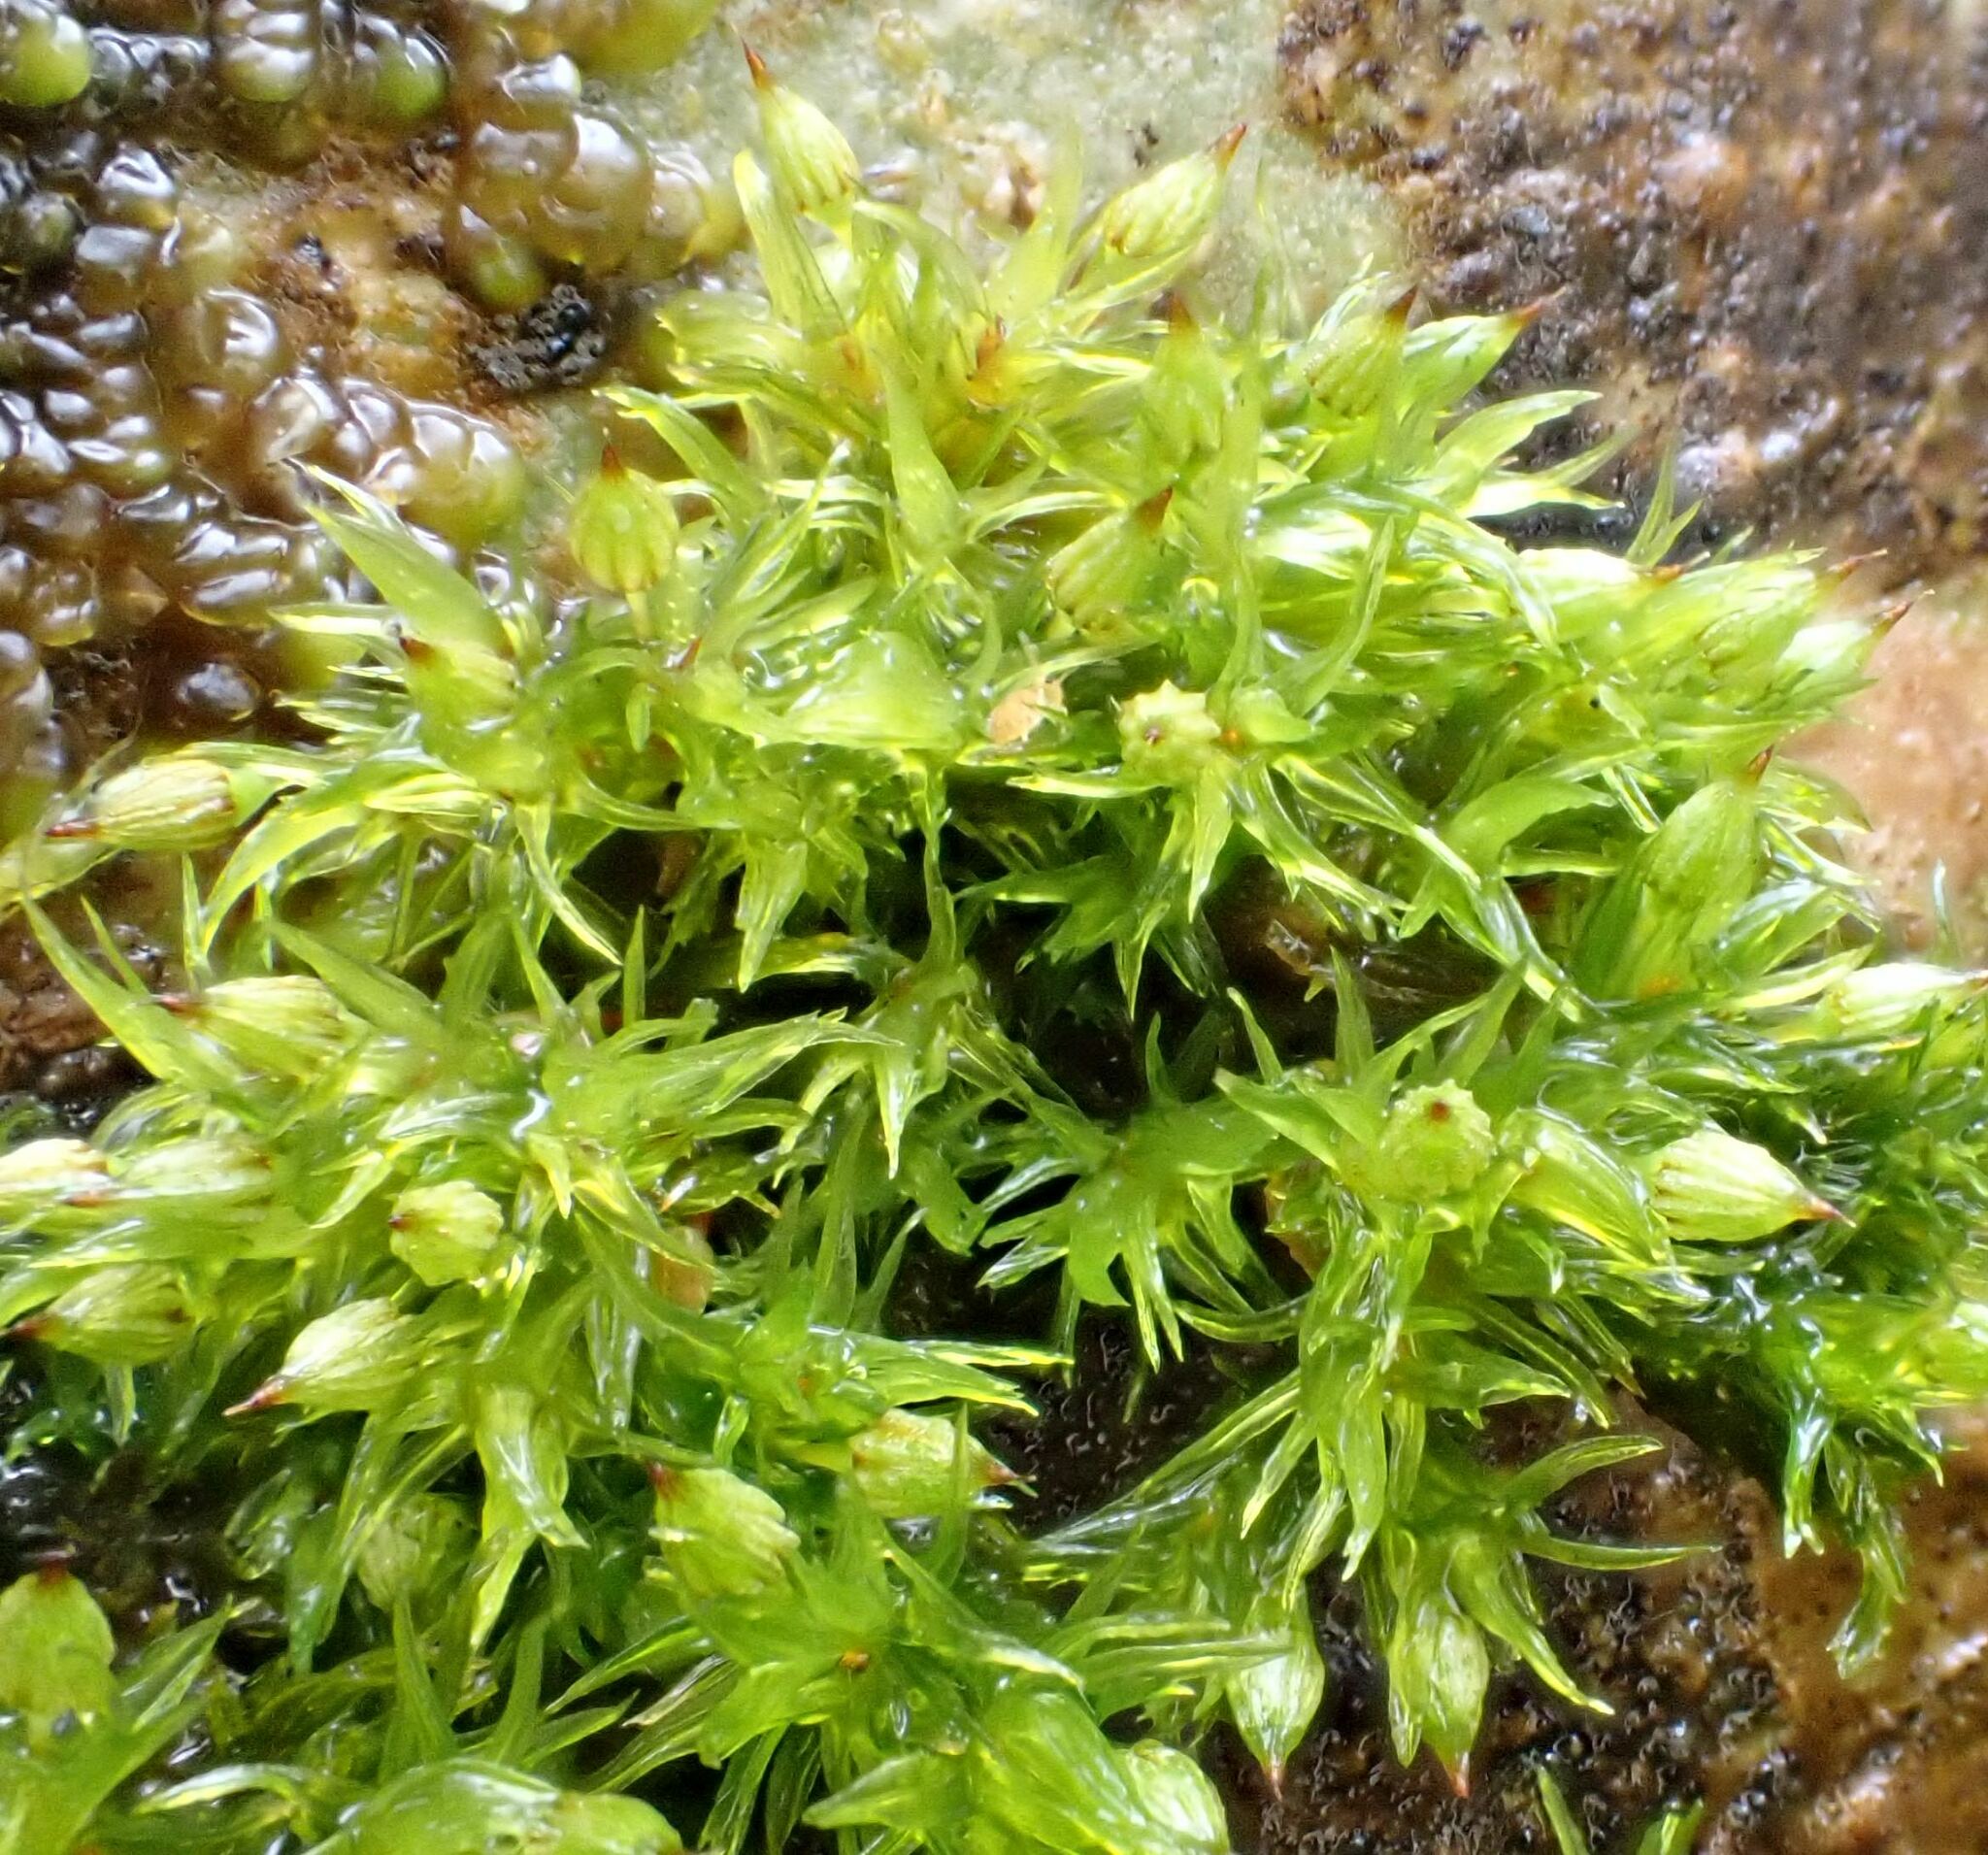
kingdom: Plantae
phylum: Bryophyta
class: Bryopsida
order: Orthotrichales
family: Orthotrichaceae
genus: Orthotrichum
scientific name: Orthotrichum pulchellum
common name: Elegant bristle-moss
